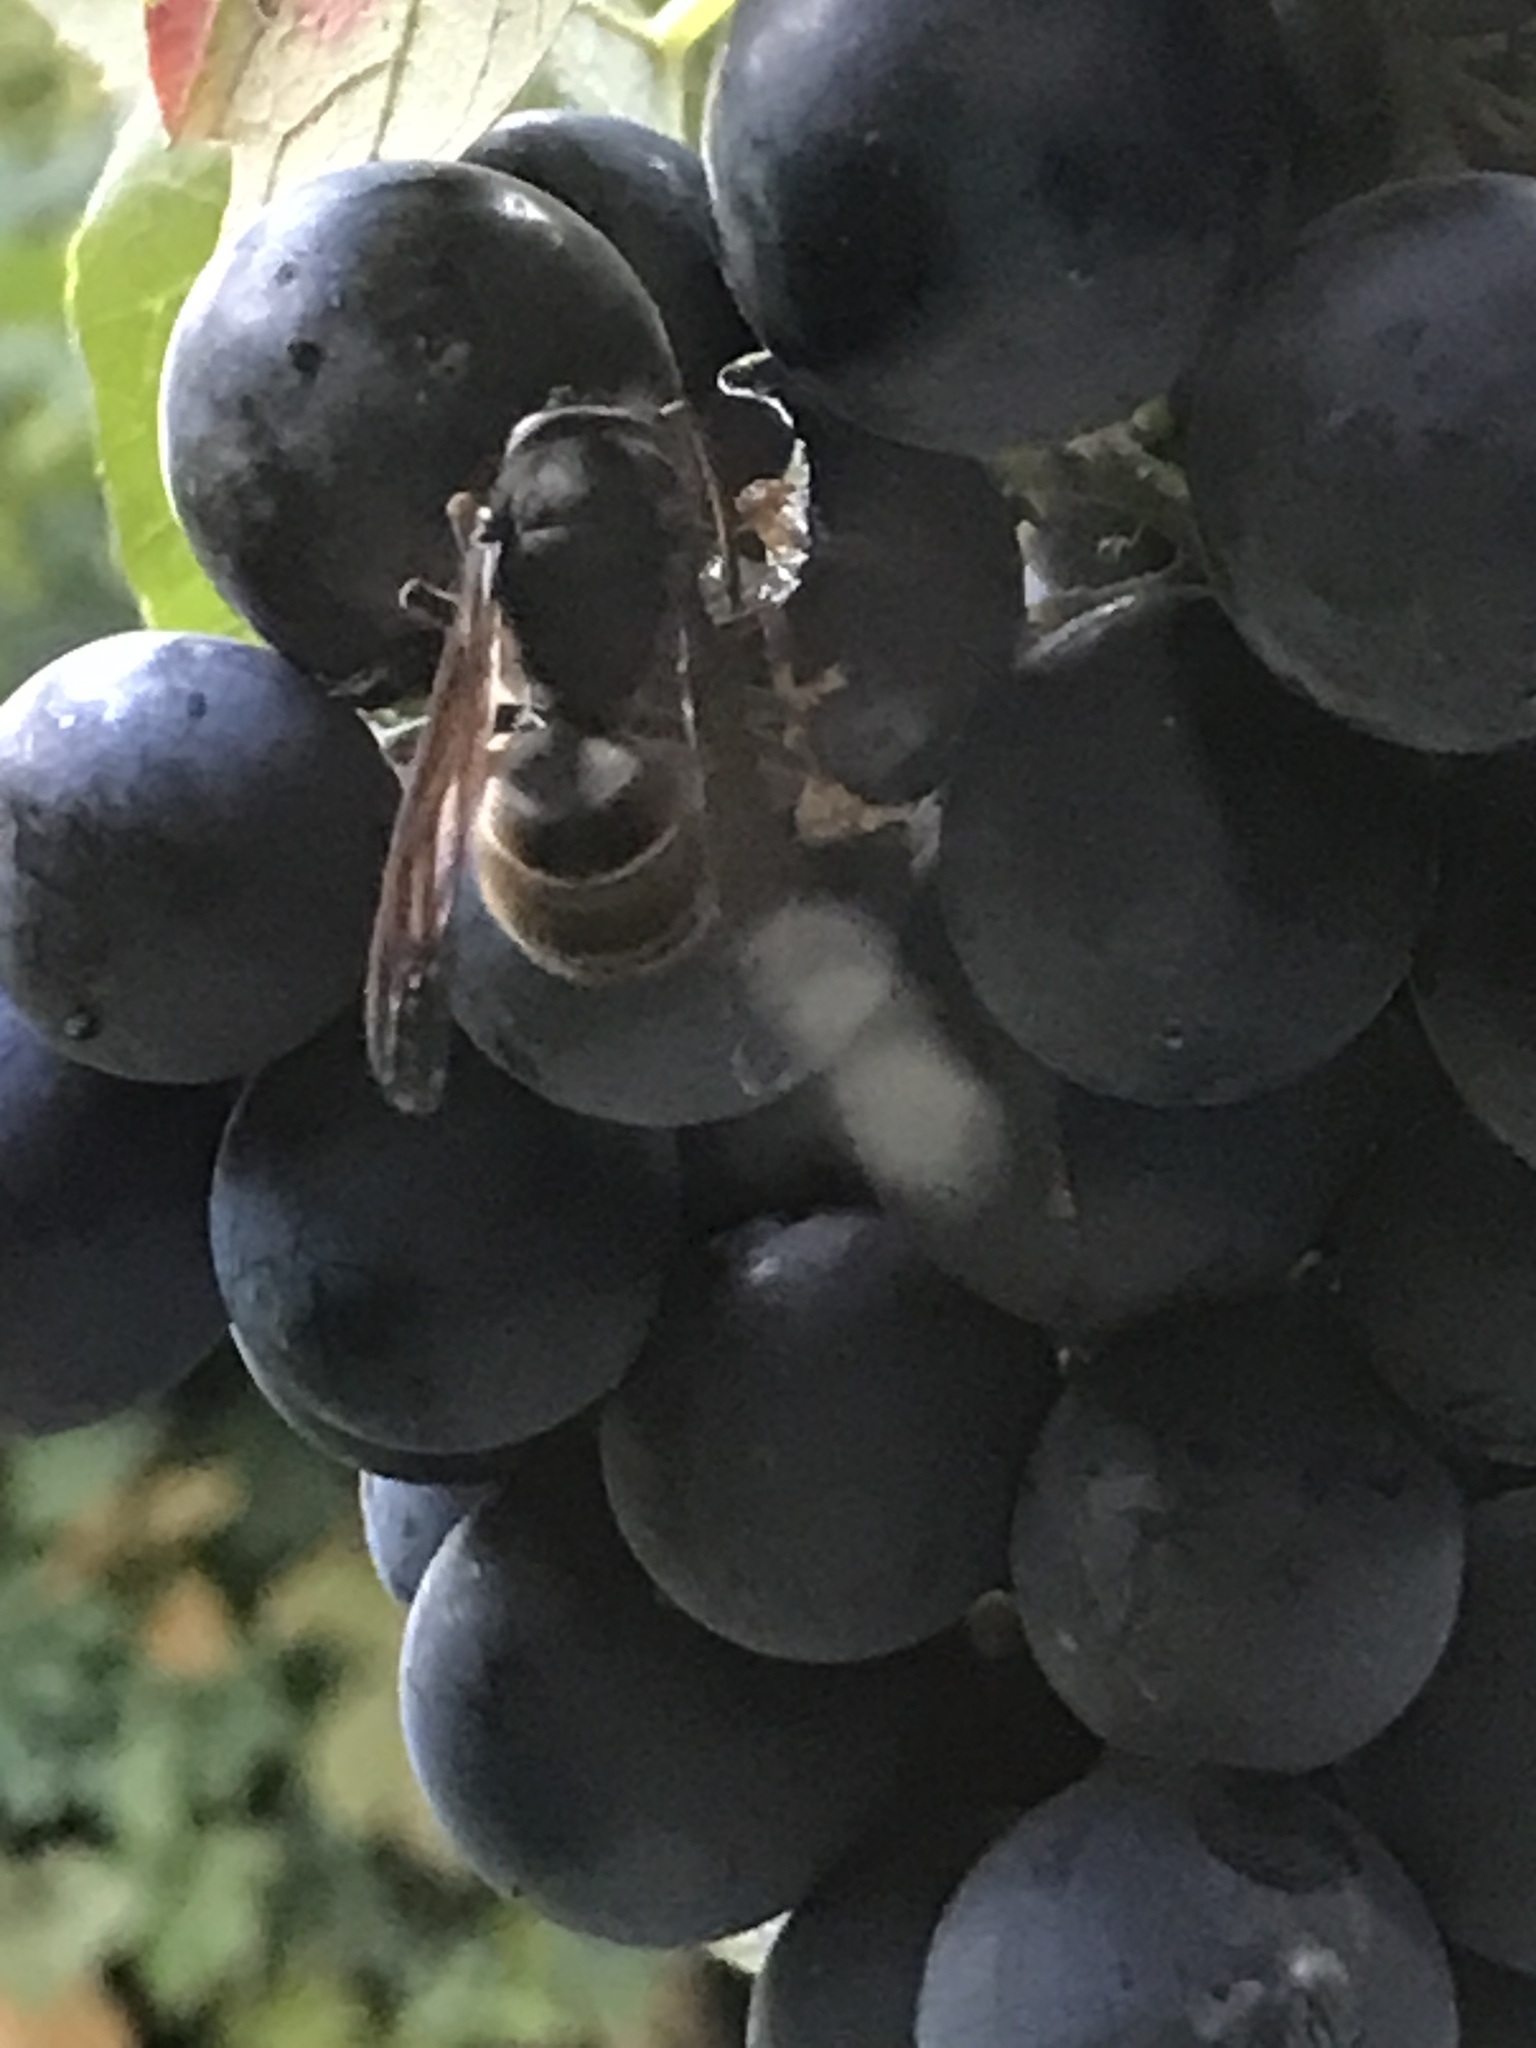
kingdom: Animalia
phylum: Arthropoda
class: Insecta
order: Hymenoptera
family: Vespidae
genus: Vespa
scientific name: Vespa velutina
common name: Asian hornet
